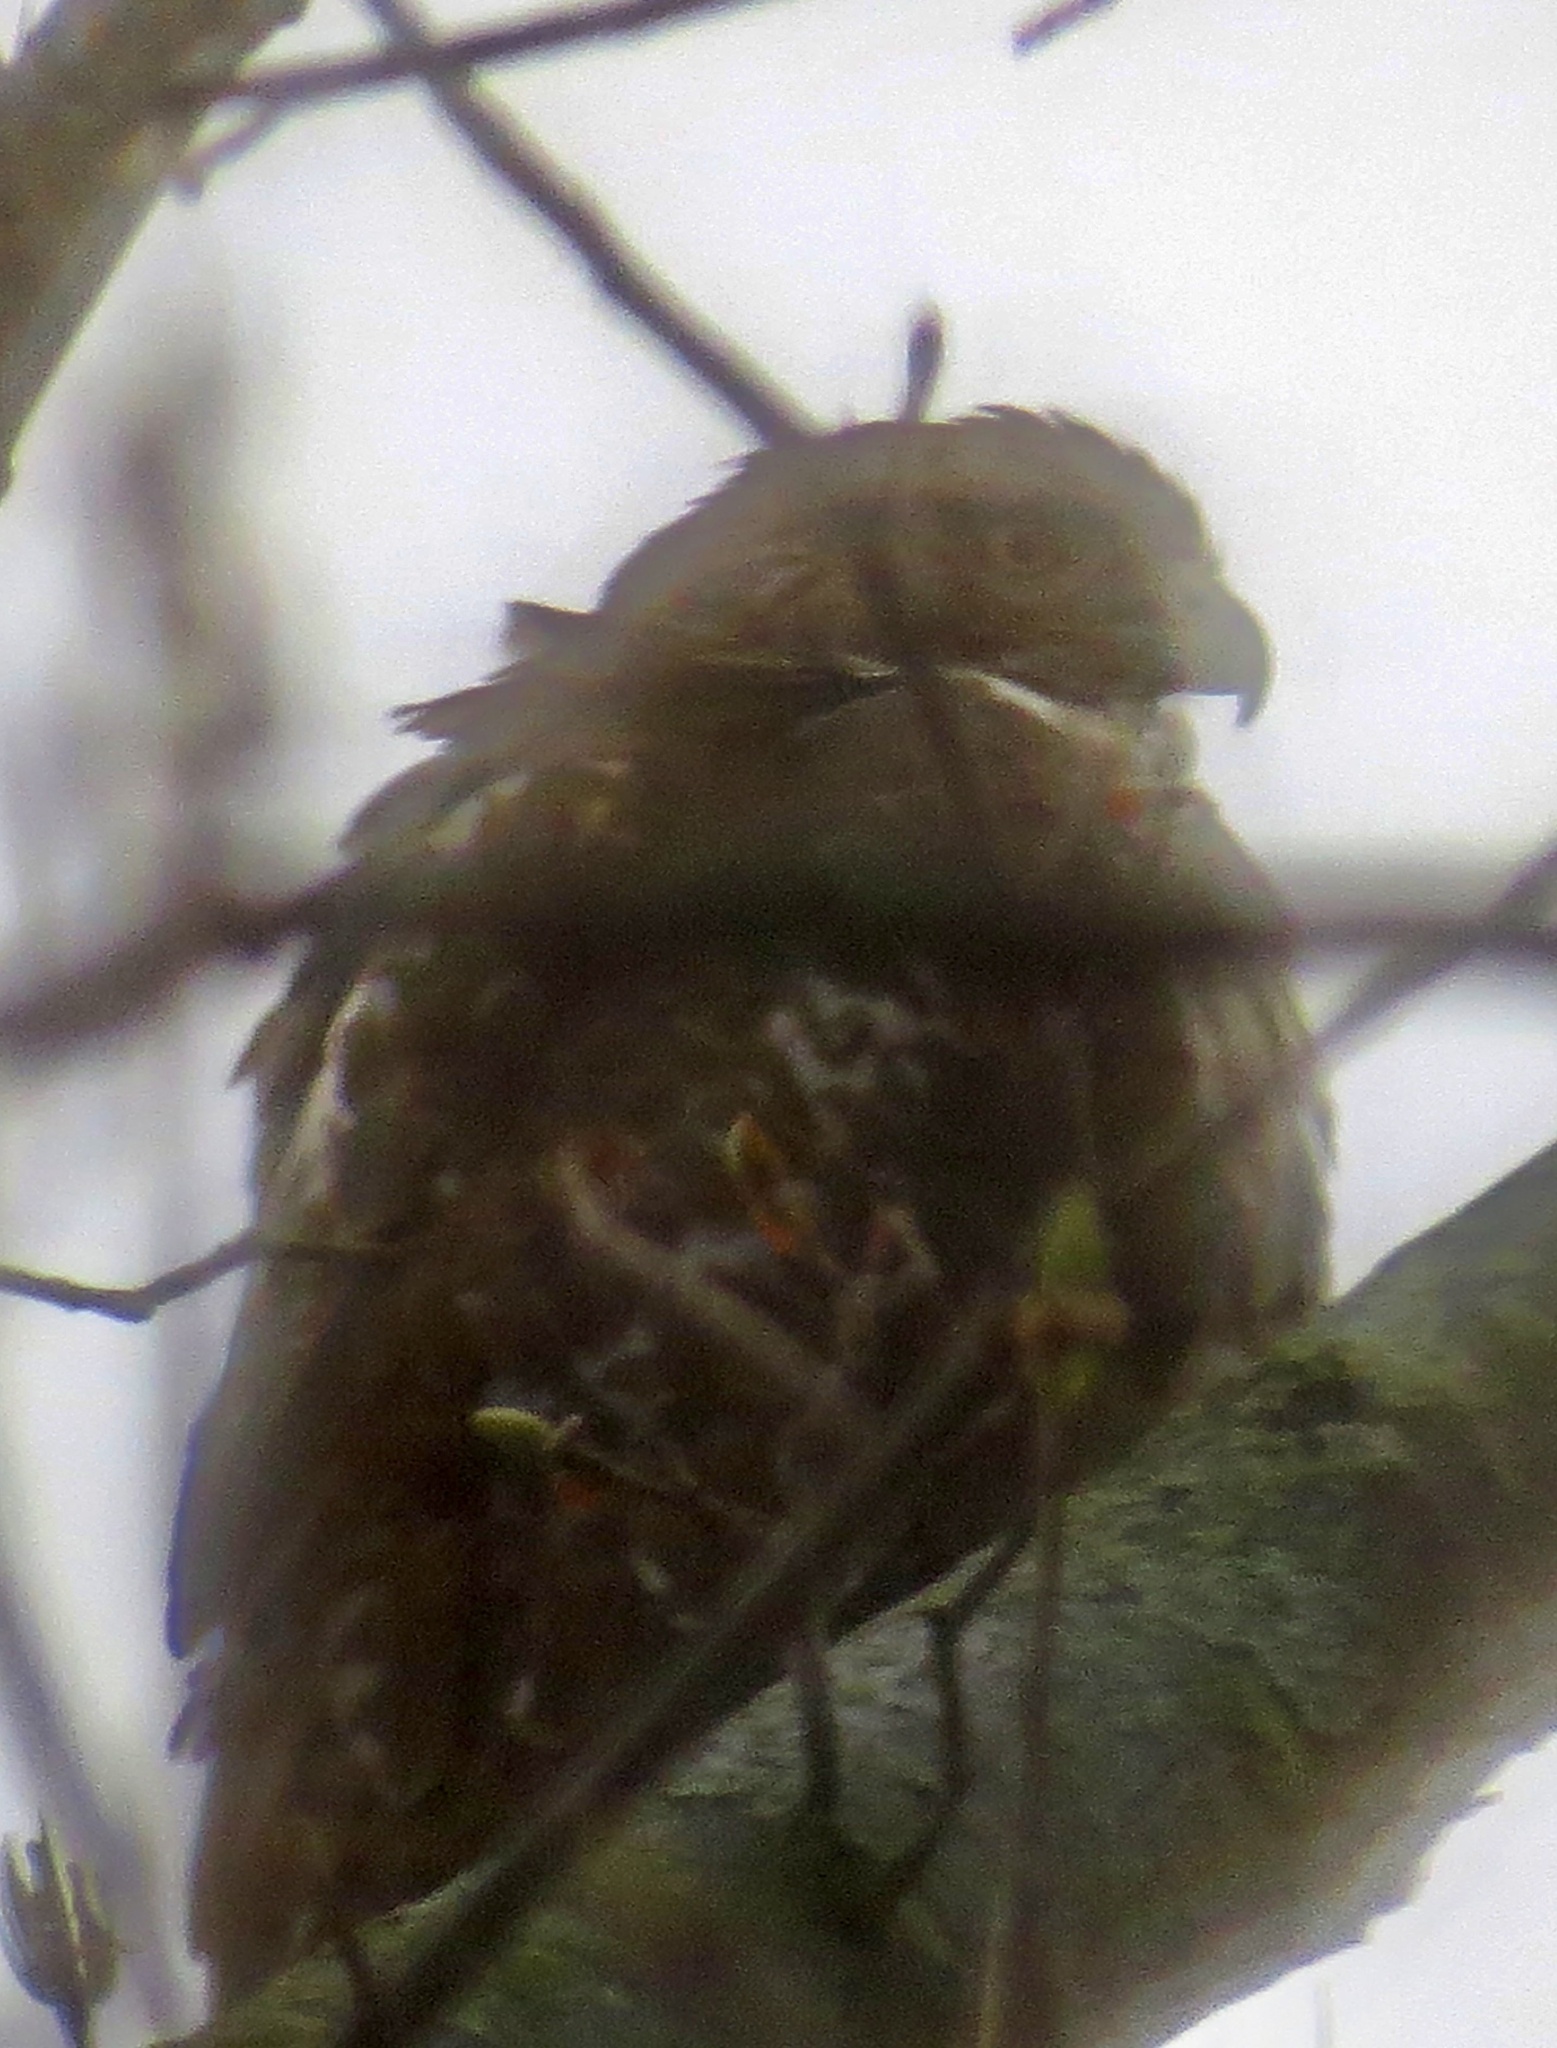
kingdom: Animalia
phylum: Chordata
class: Aves
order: Accipitriformes
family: Accipitridae
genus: Buteo
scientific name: Buteo jamaicensis
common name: Red-tailed hawk
